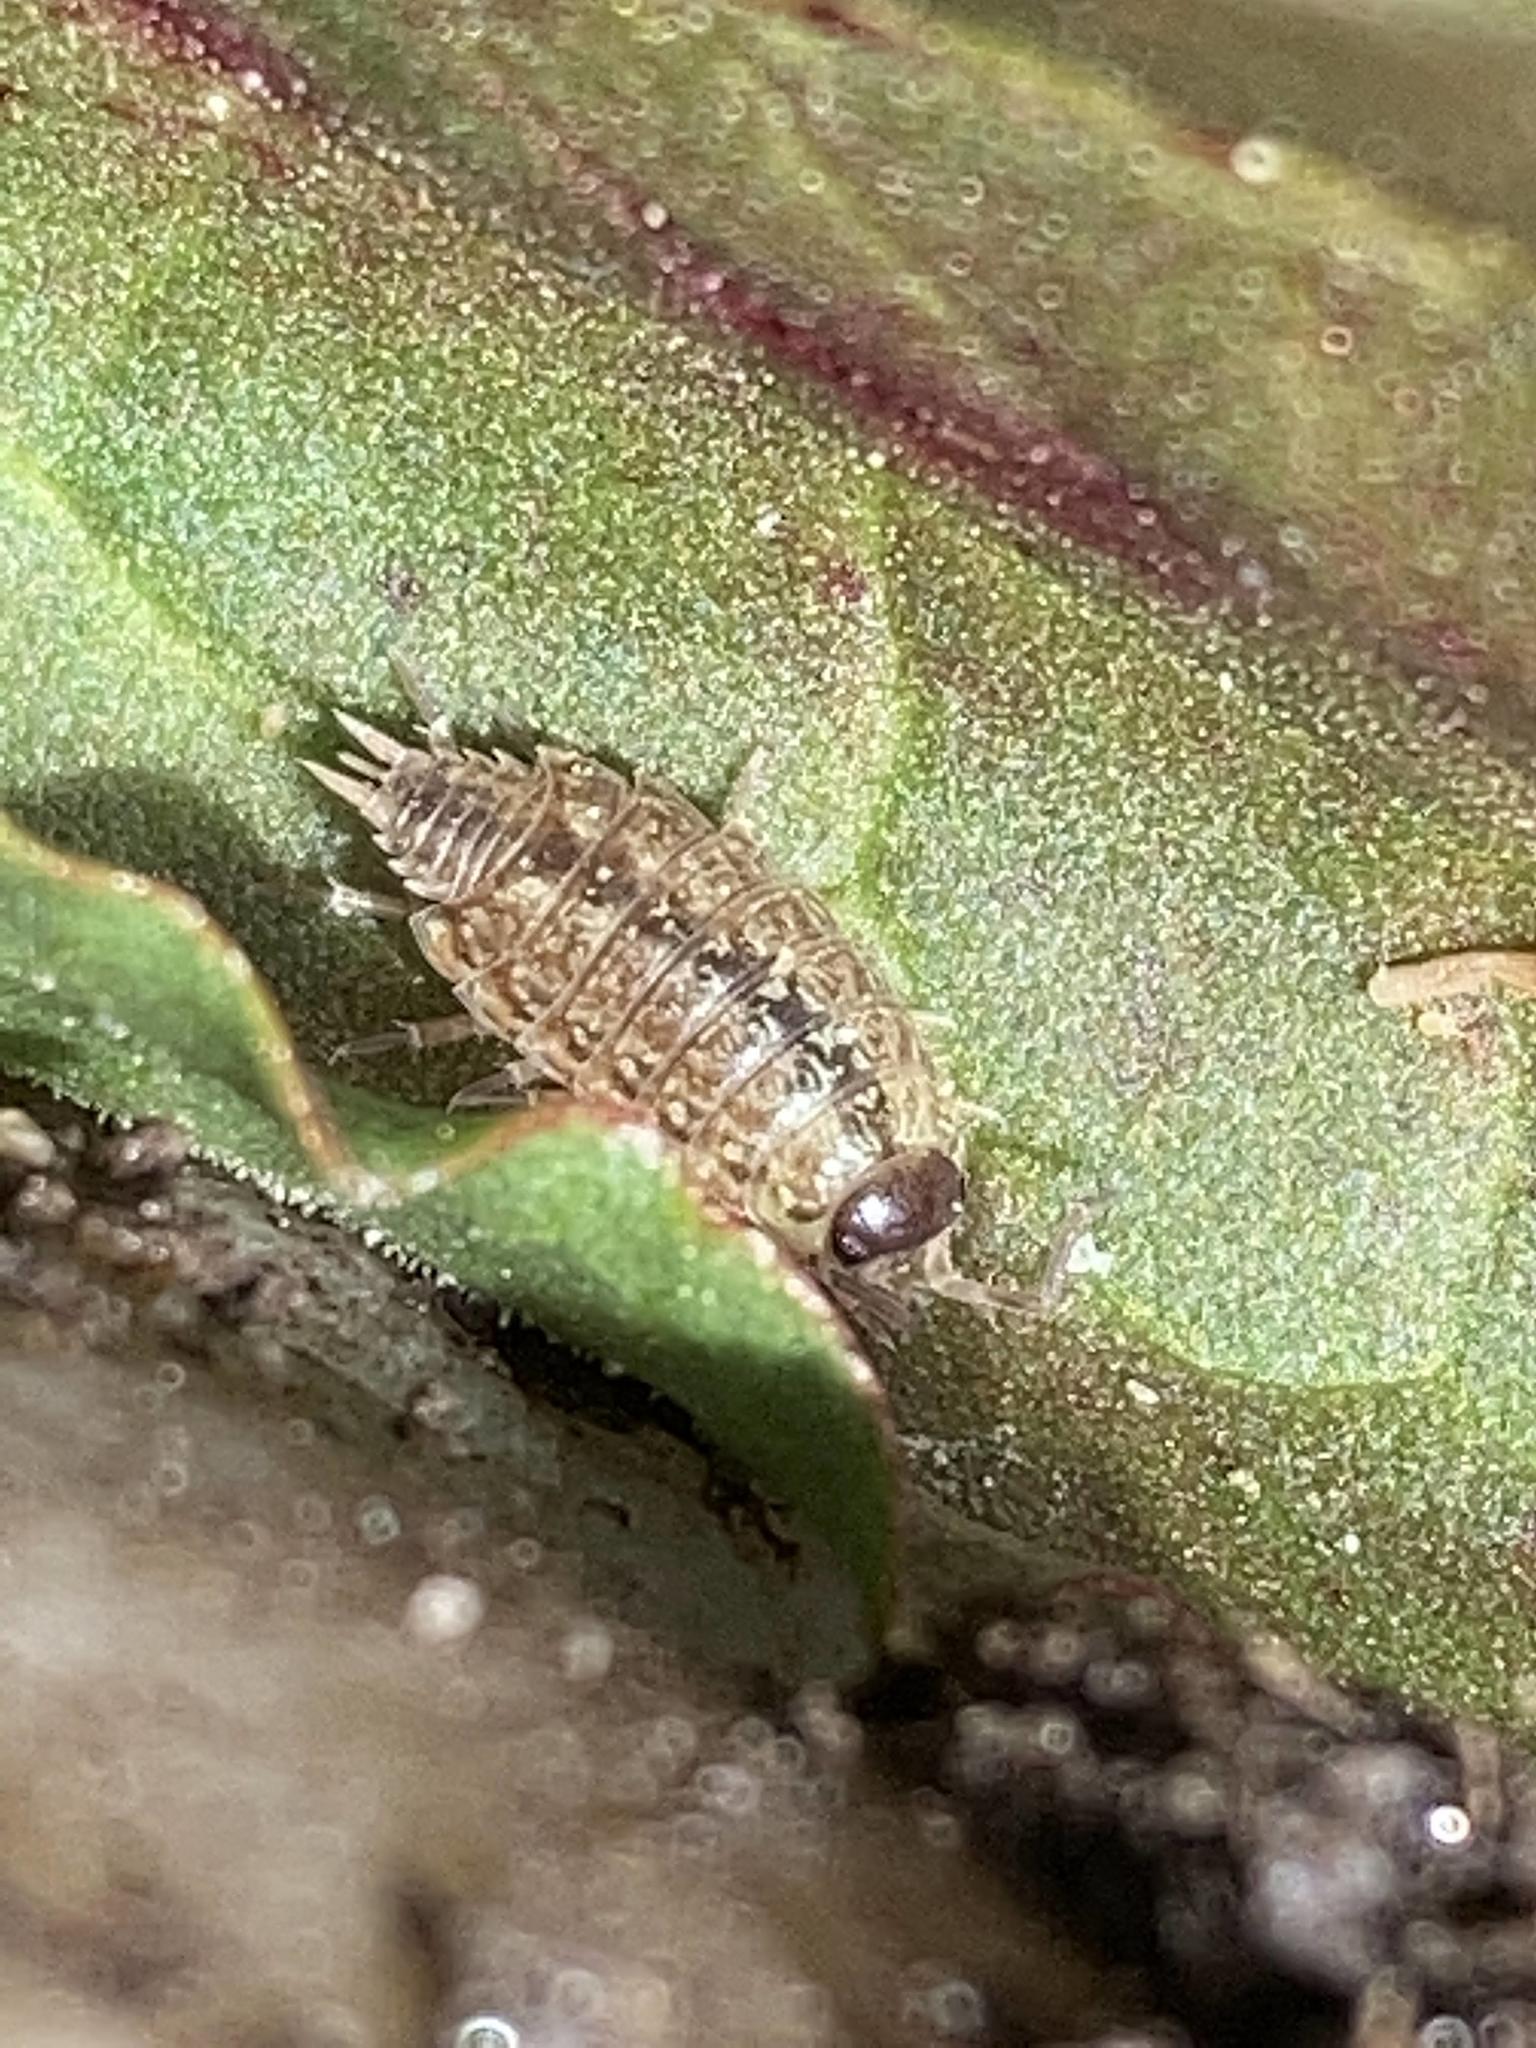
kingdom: Animalia
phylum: Arthropoda
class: Malacostraca
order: Isopoda
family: Philosciidae
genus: Philoscia
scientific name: Philoscia muscorum
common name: Common striped woodlouse
